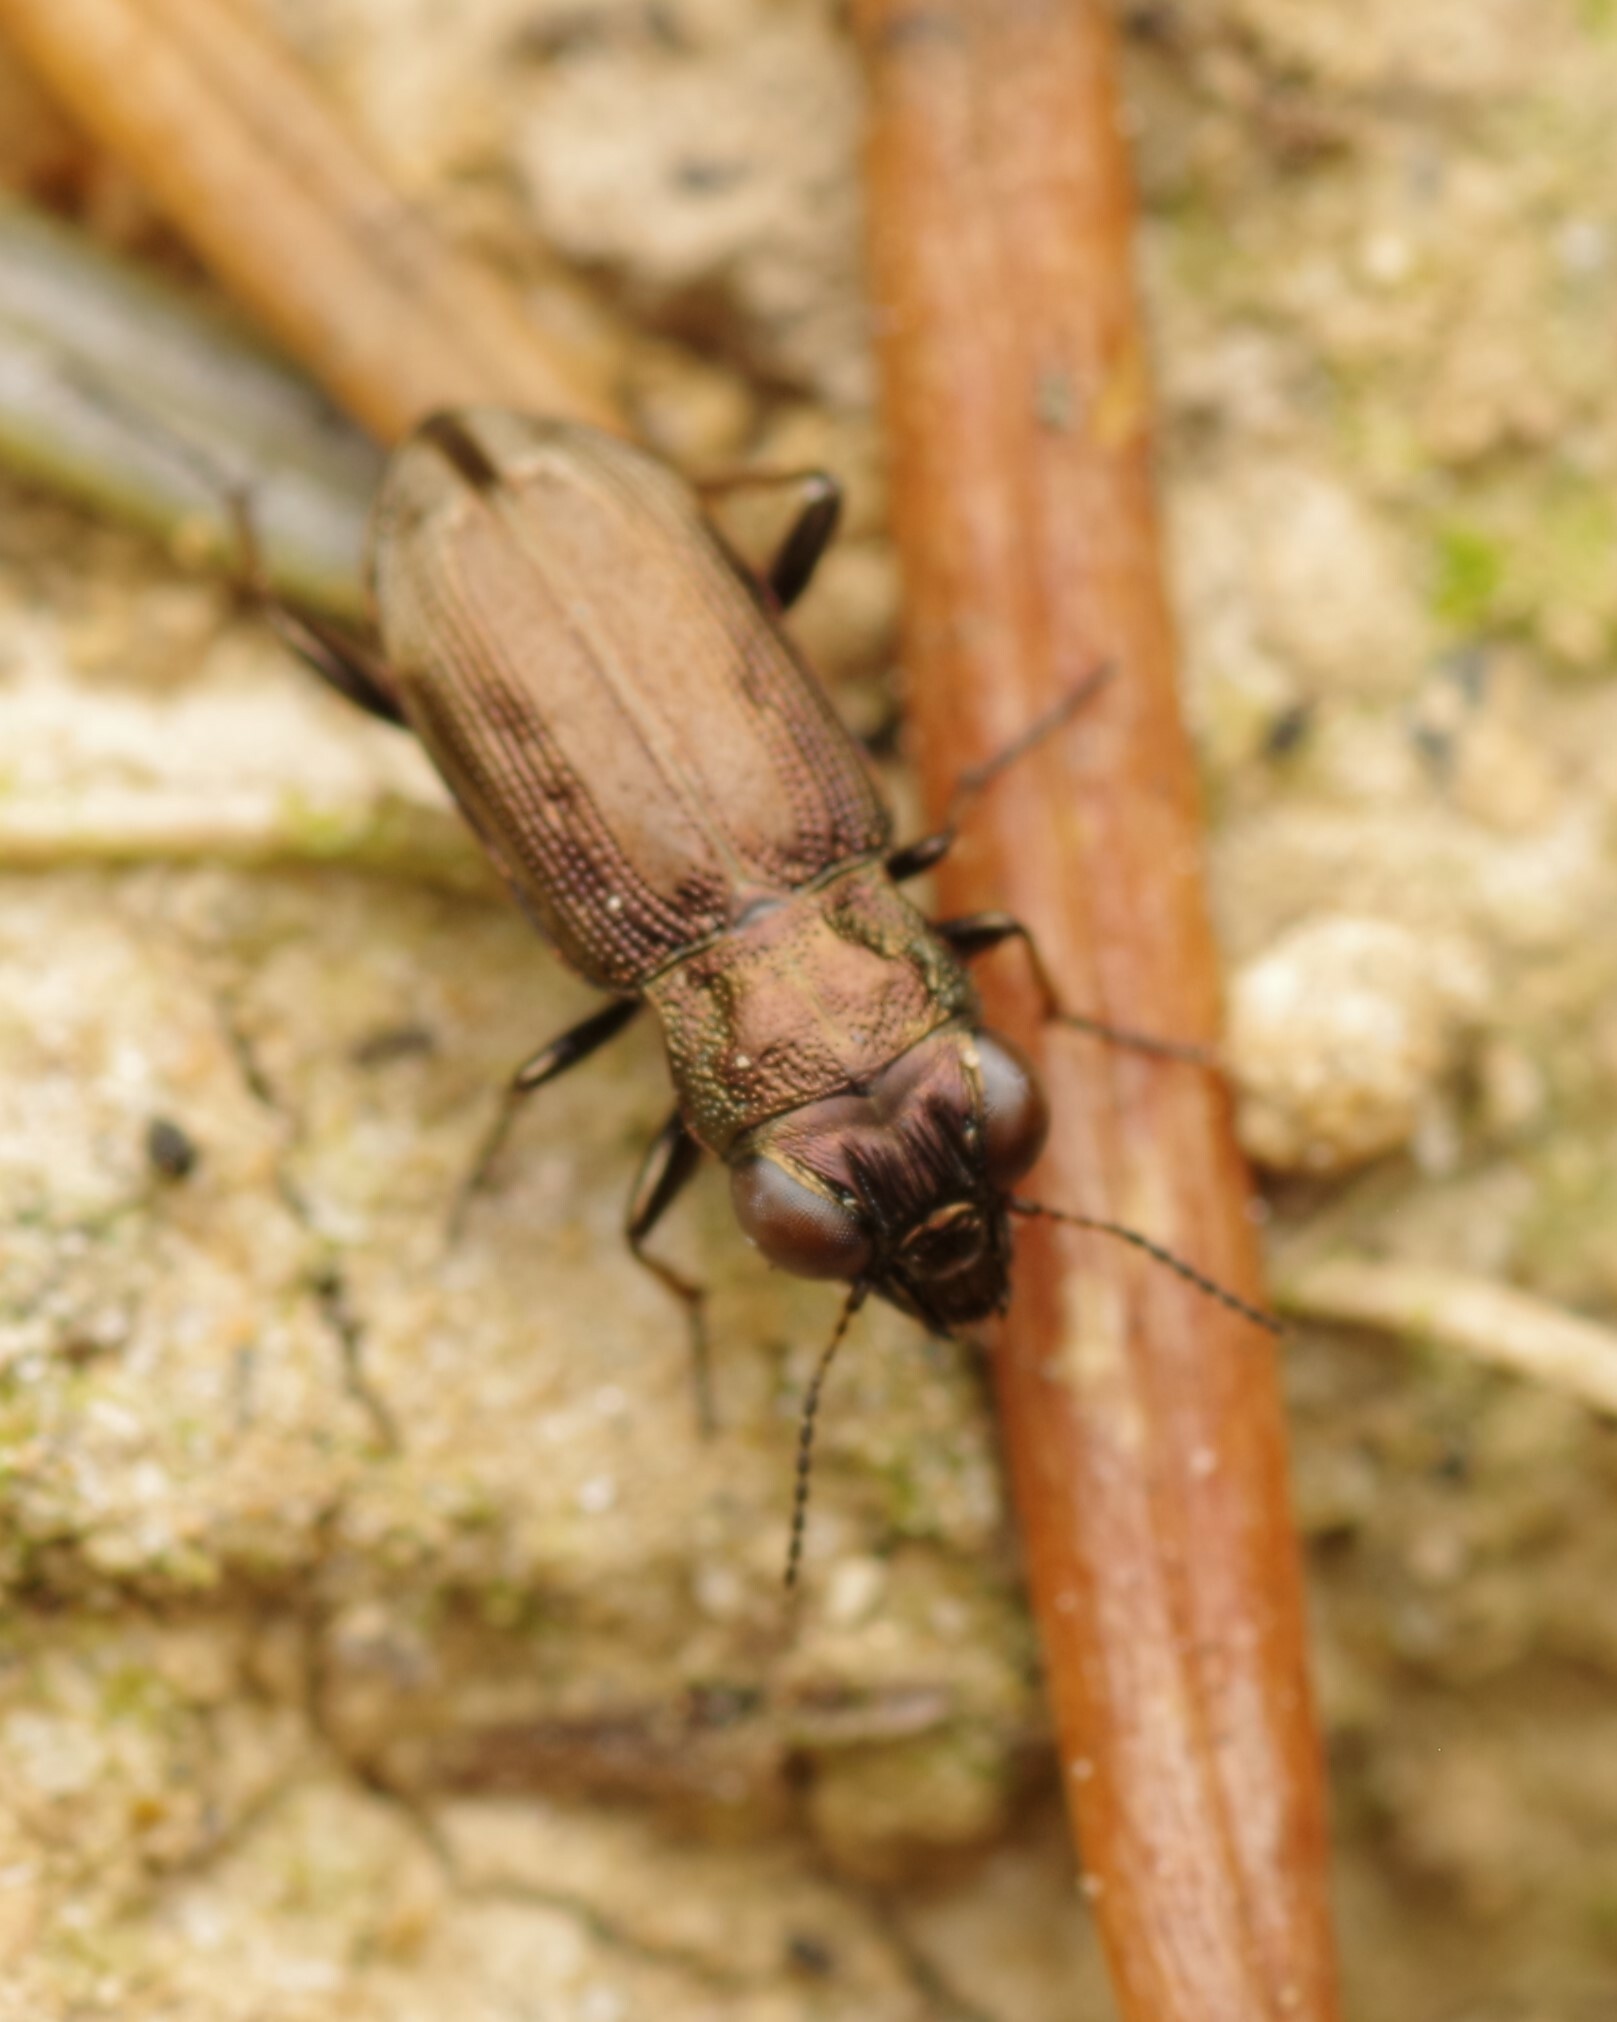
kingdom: Animalia
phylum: Arthropoda
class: Insecta
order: Coleoptera
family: Carabidae
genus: Notiophilus
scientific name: Notiophilus quadripunctatus
